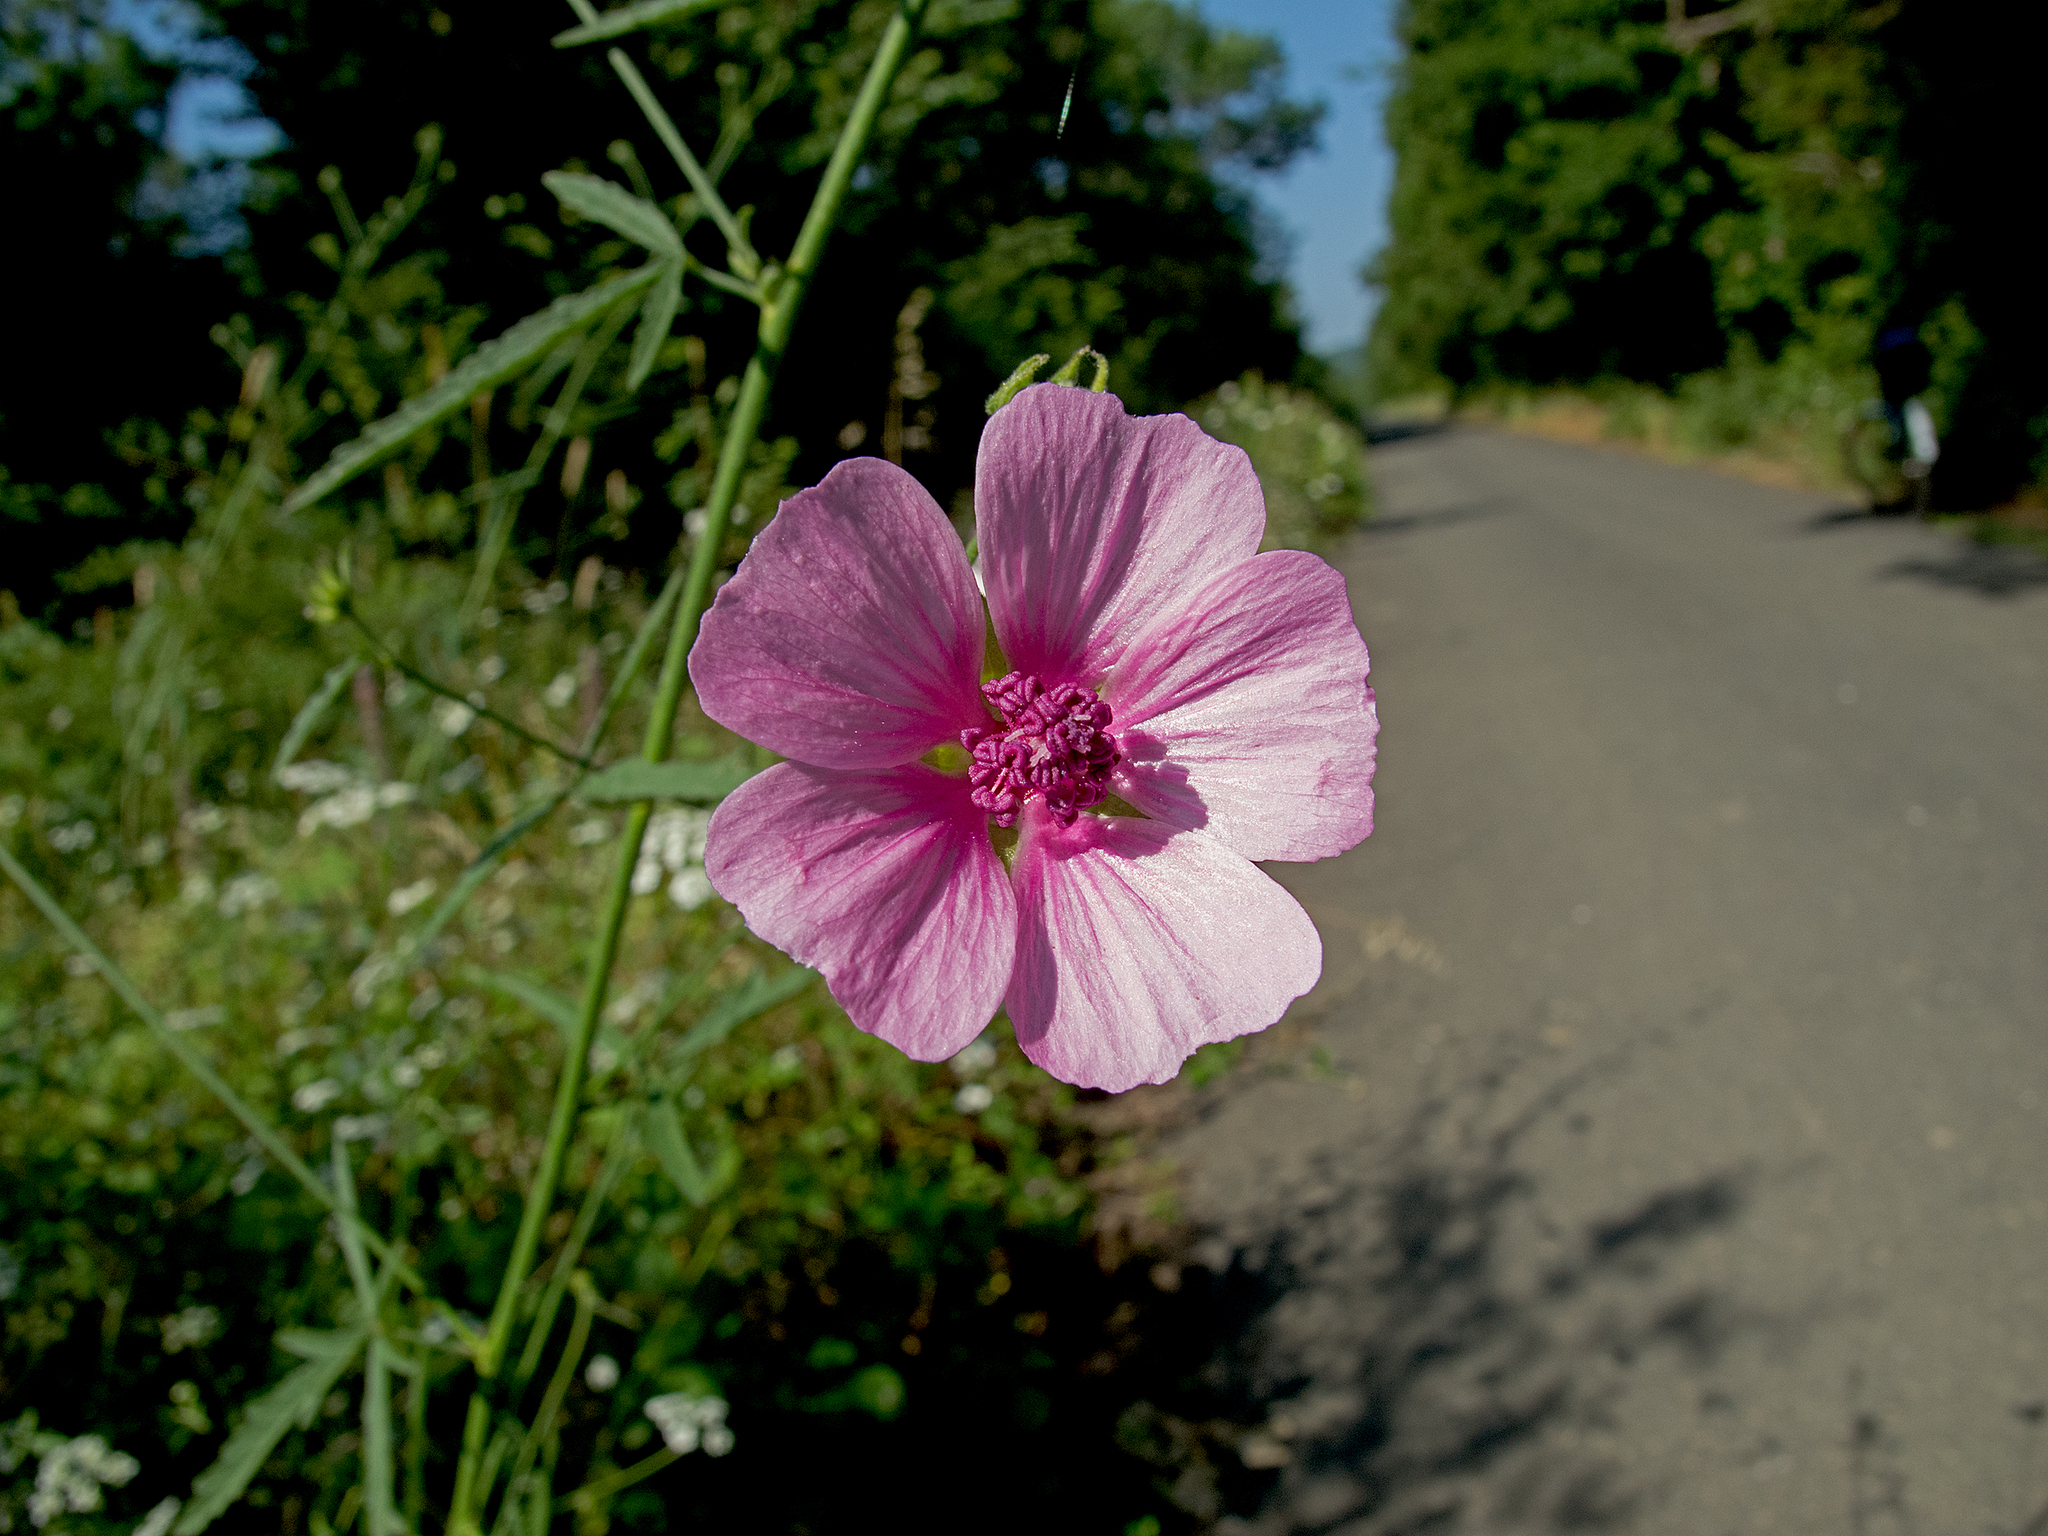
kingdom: Plantae
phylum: Tracheophyta
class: Magnoliopsida
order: Malvales
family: Malvaceae
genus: Althaea
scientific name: Althaea cannabina
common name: Palm-leaf marshmallow
